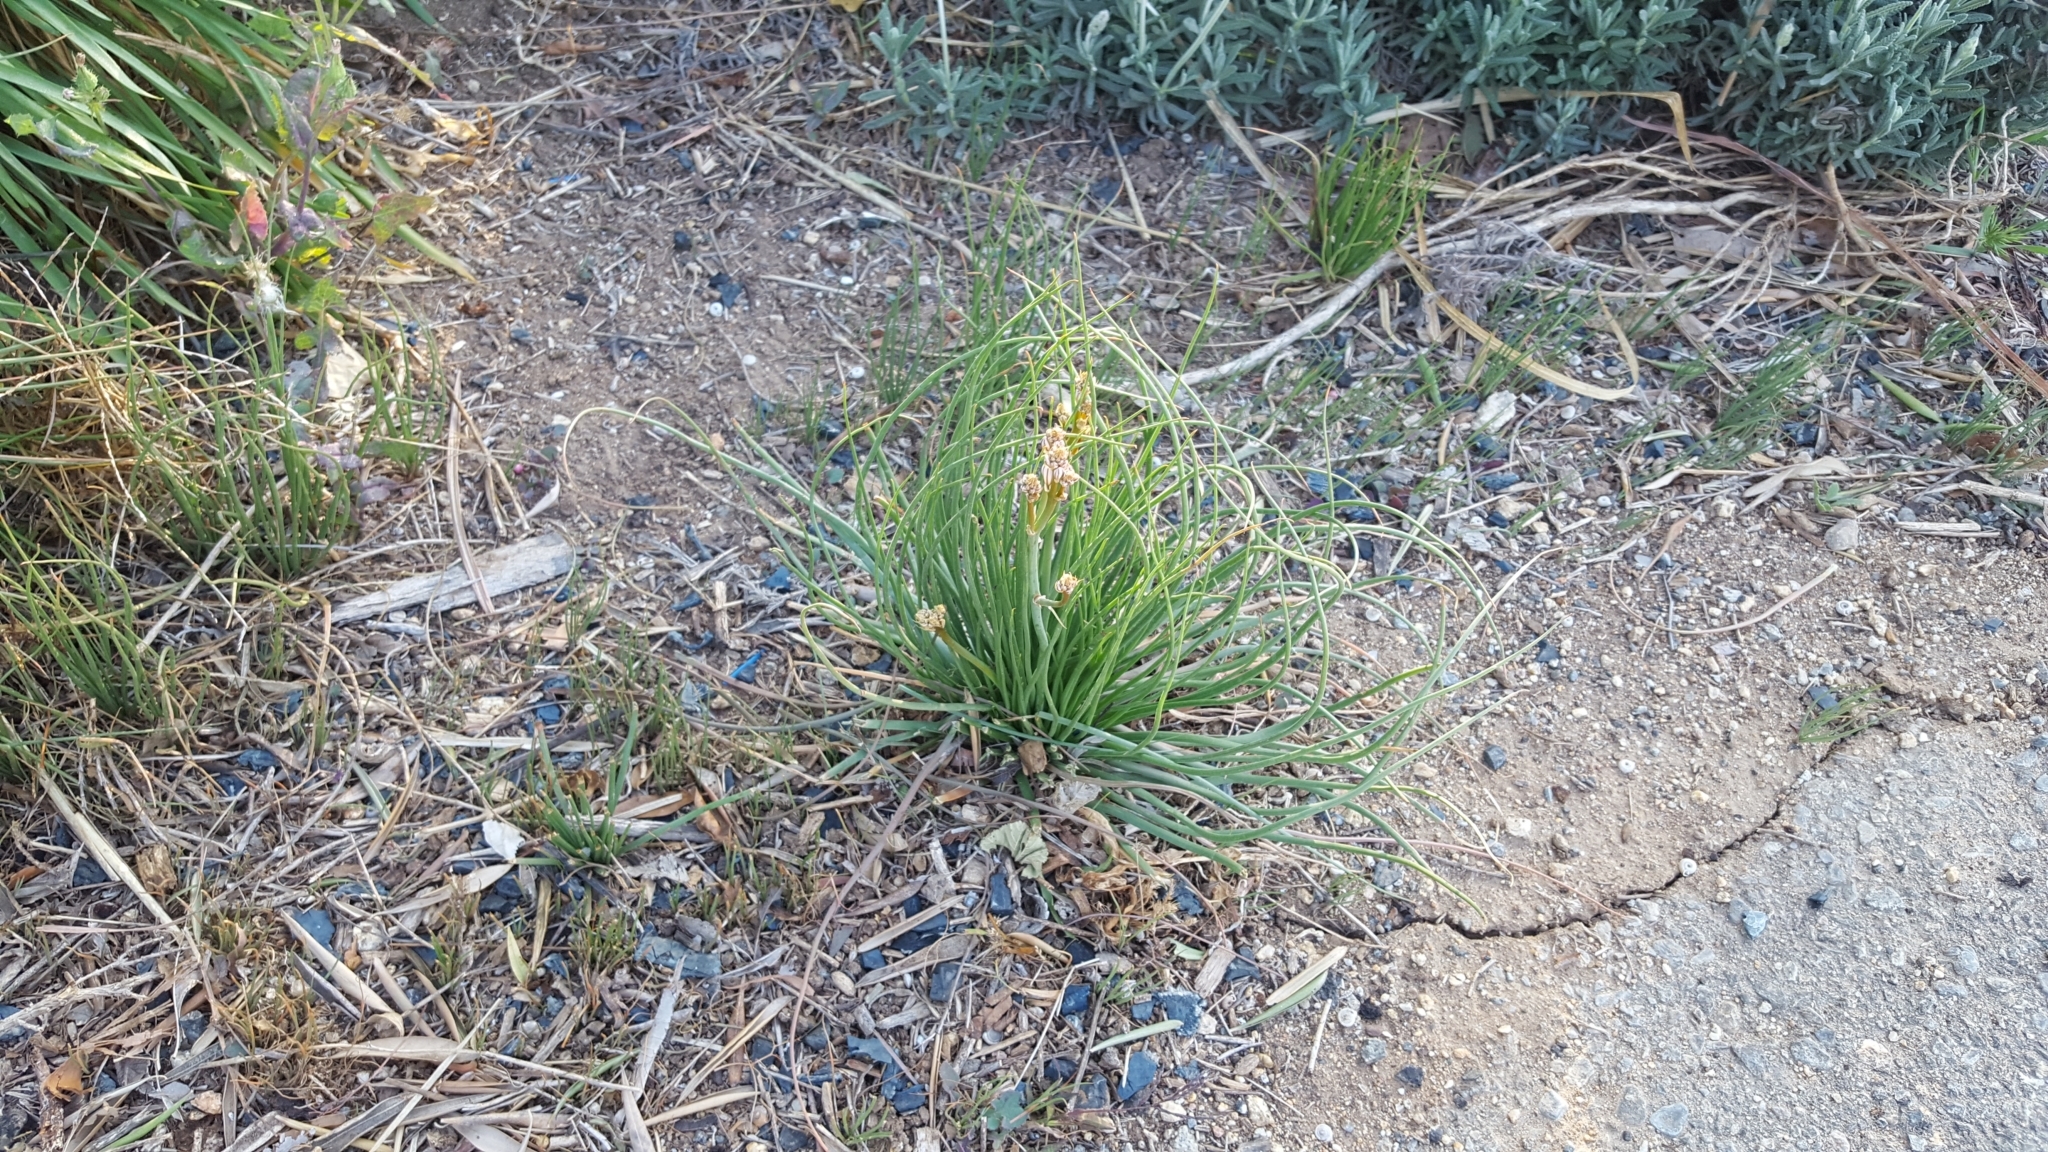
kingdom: Plantae
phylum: Tracheophyta
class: Liliopsida
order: Asparagales
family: Asphodelaceae
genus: Asphodelus
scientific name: Asphodelus fistulosus
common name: Onionweed
